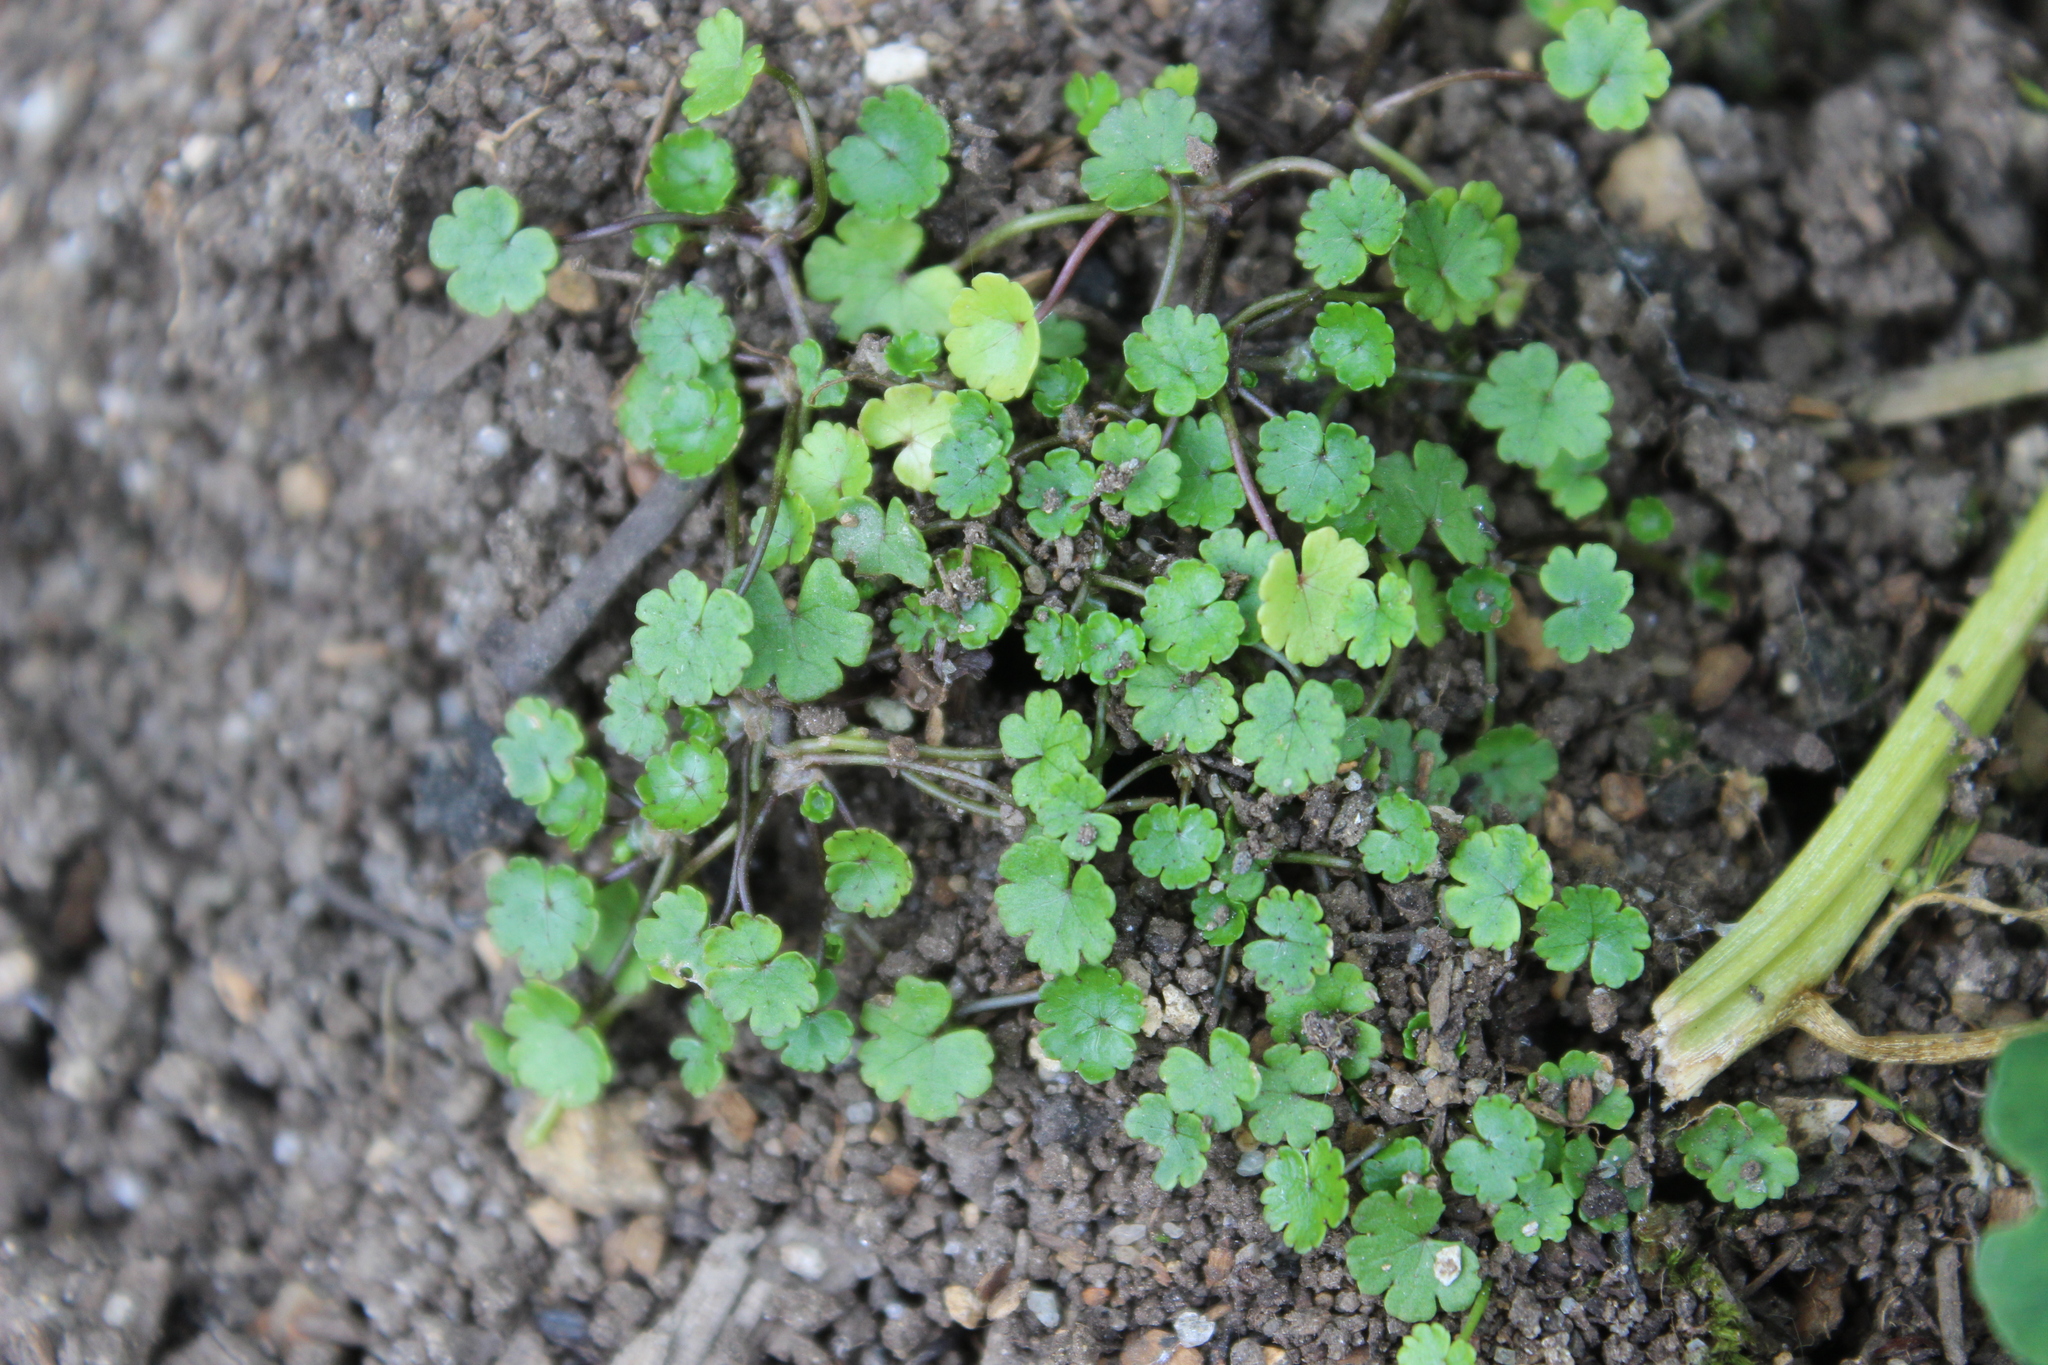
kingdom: Plantae
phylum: Tracheophyta
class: Magnoliopsida
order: Apiales
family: Araliaceae
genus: Hydrocotyle
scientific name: Hydrocotyle microphylla
